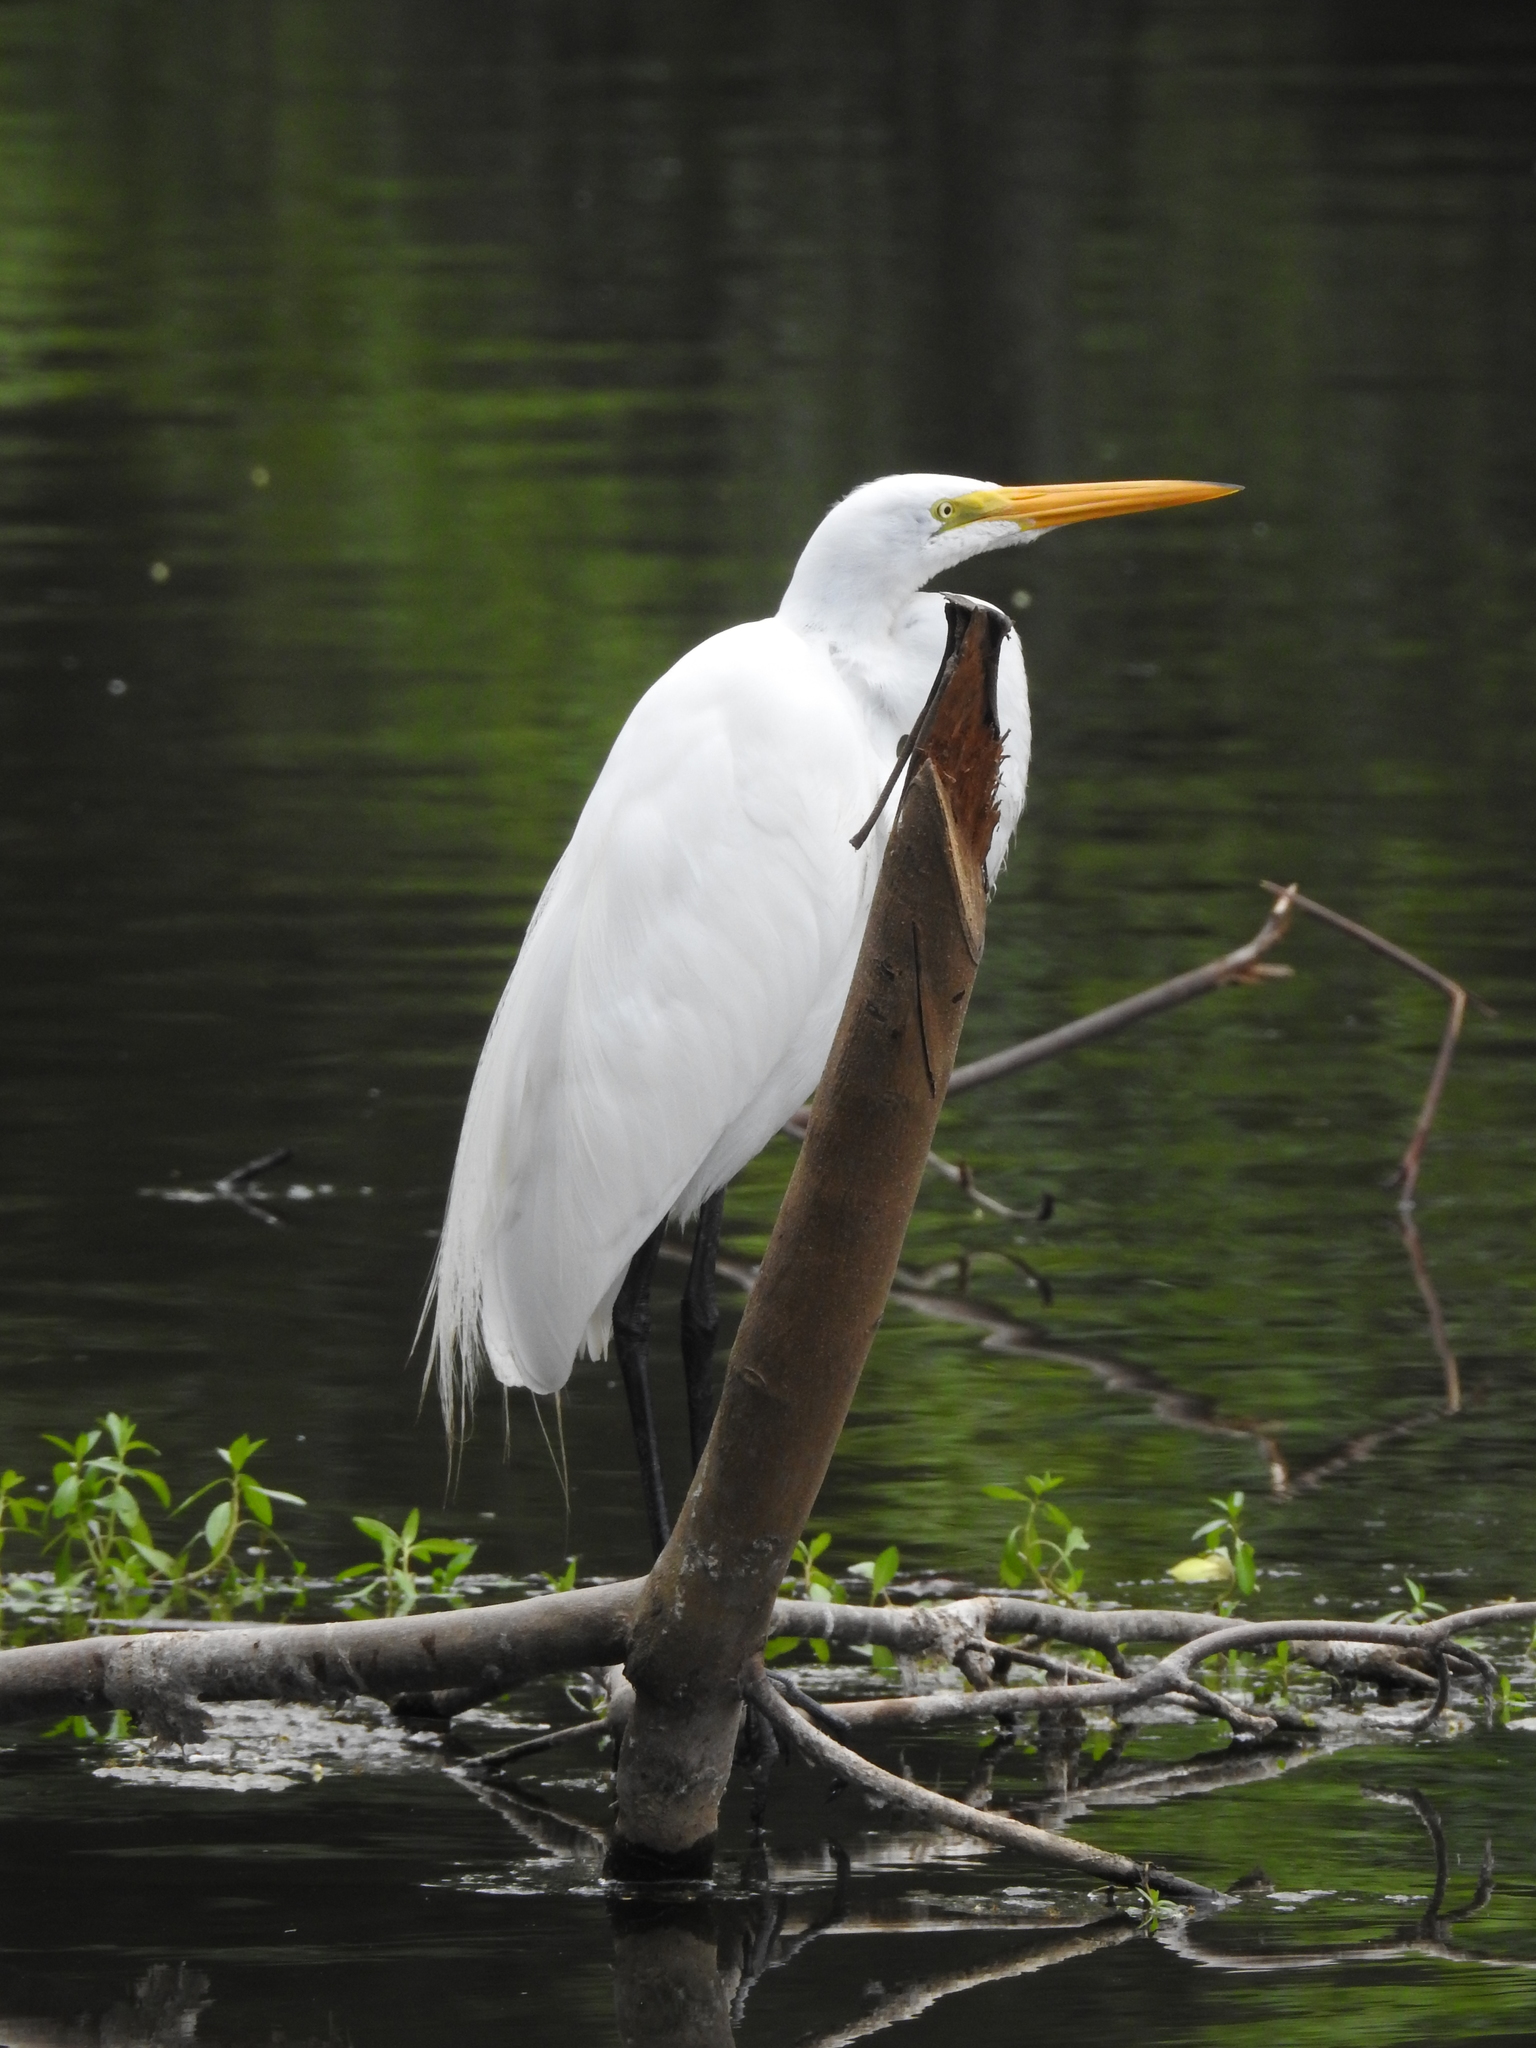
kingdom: Animalia
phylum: Chordata
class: Aves
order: Pelecaniformes
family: Ardeidae
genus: Ardea
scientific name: Ardea alba
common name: Great egret
